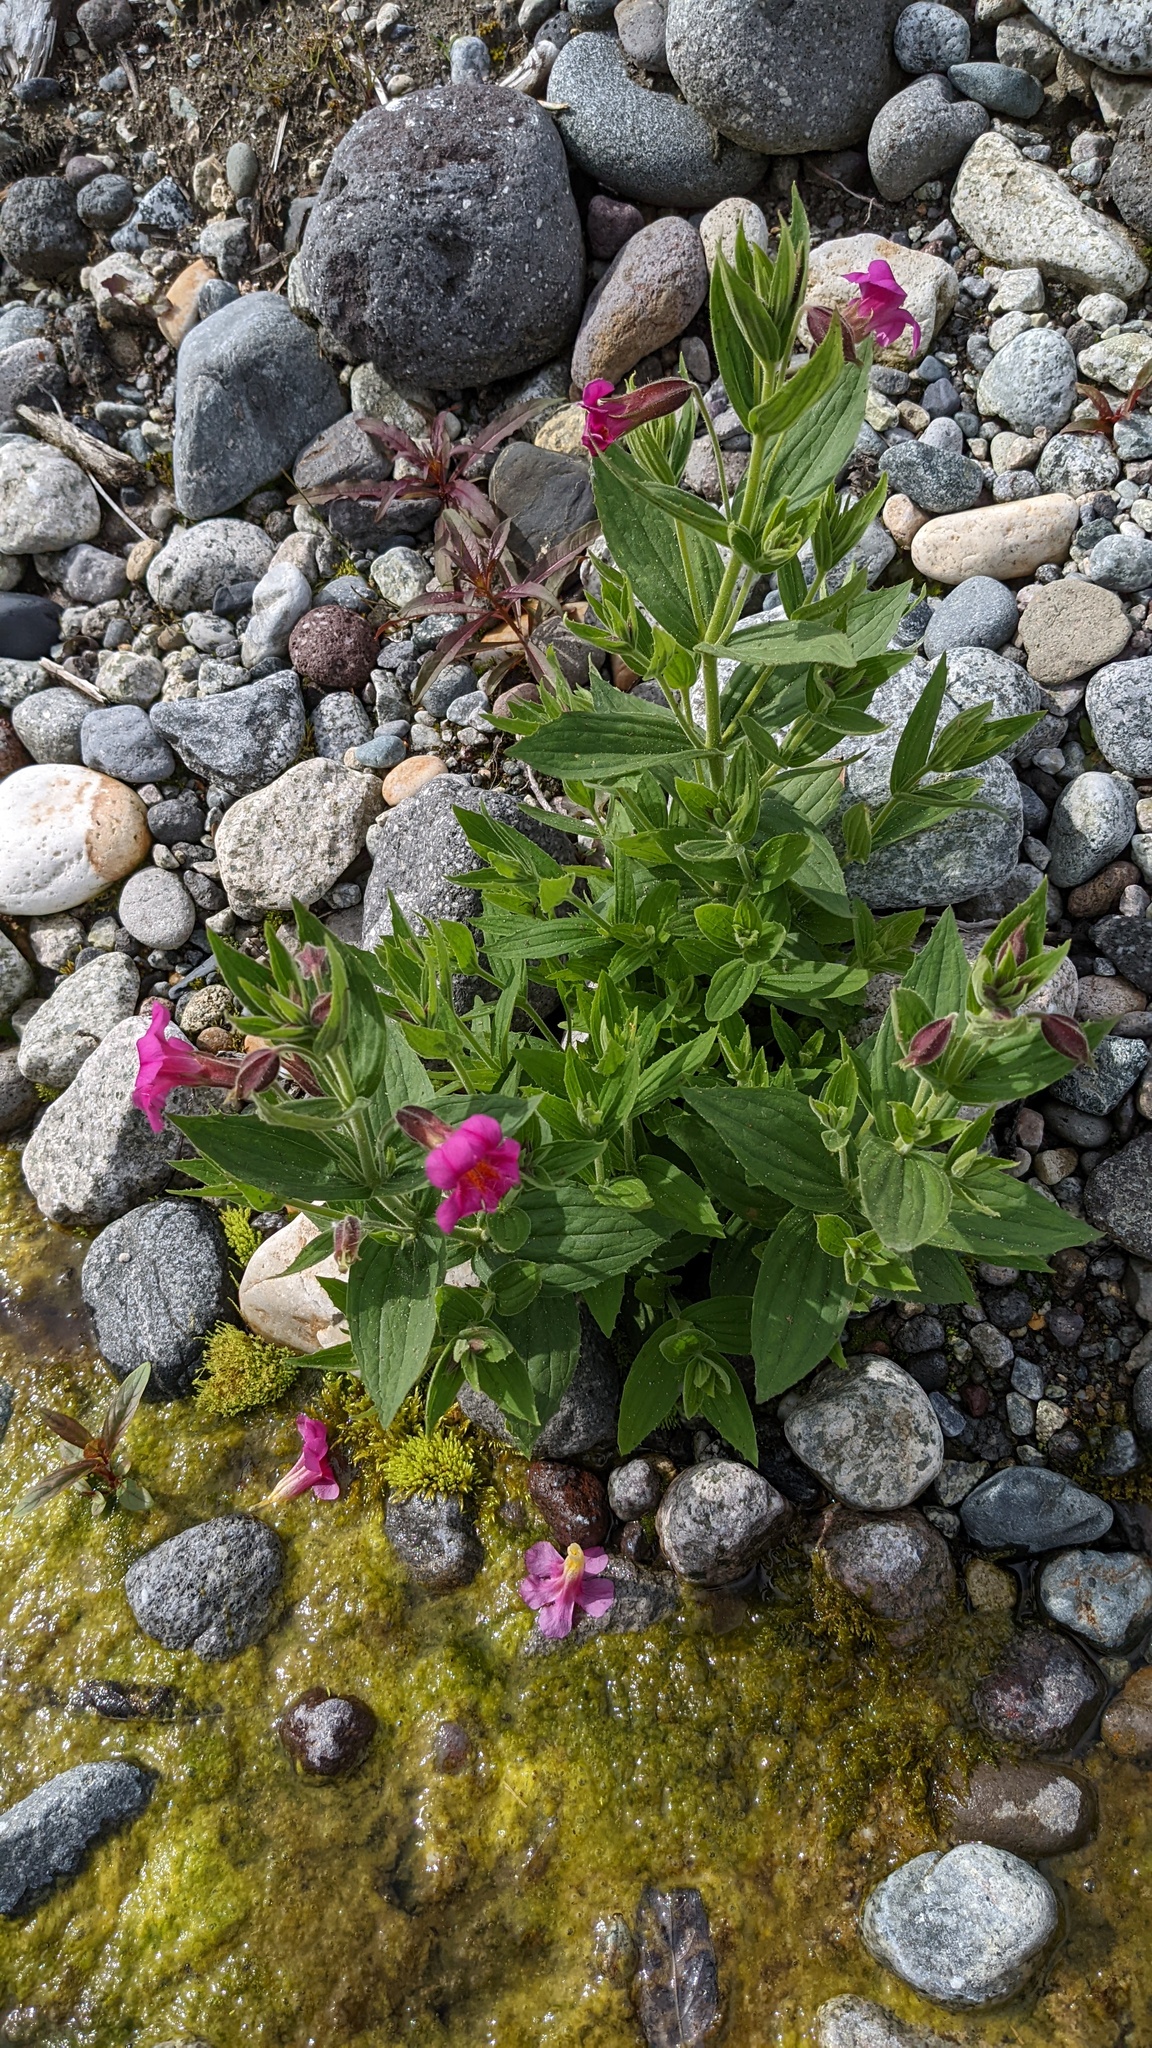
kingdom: Plantae
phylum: Tracheophyta
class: Magnoliopsida
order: Lamiales
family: Phrymaceae
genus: Erythranthe
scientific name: Erythranthe lewisii
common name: Lewis's monkey-flower
